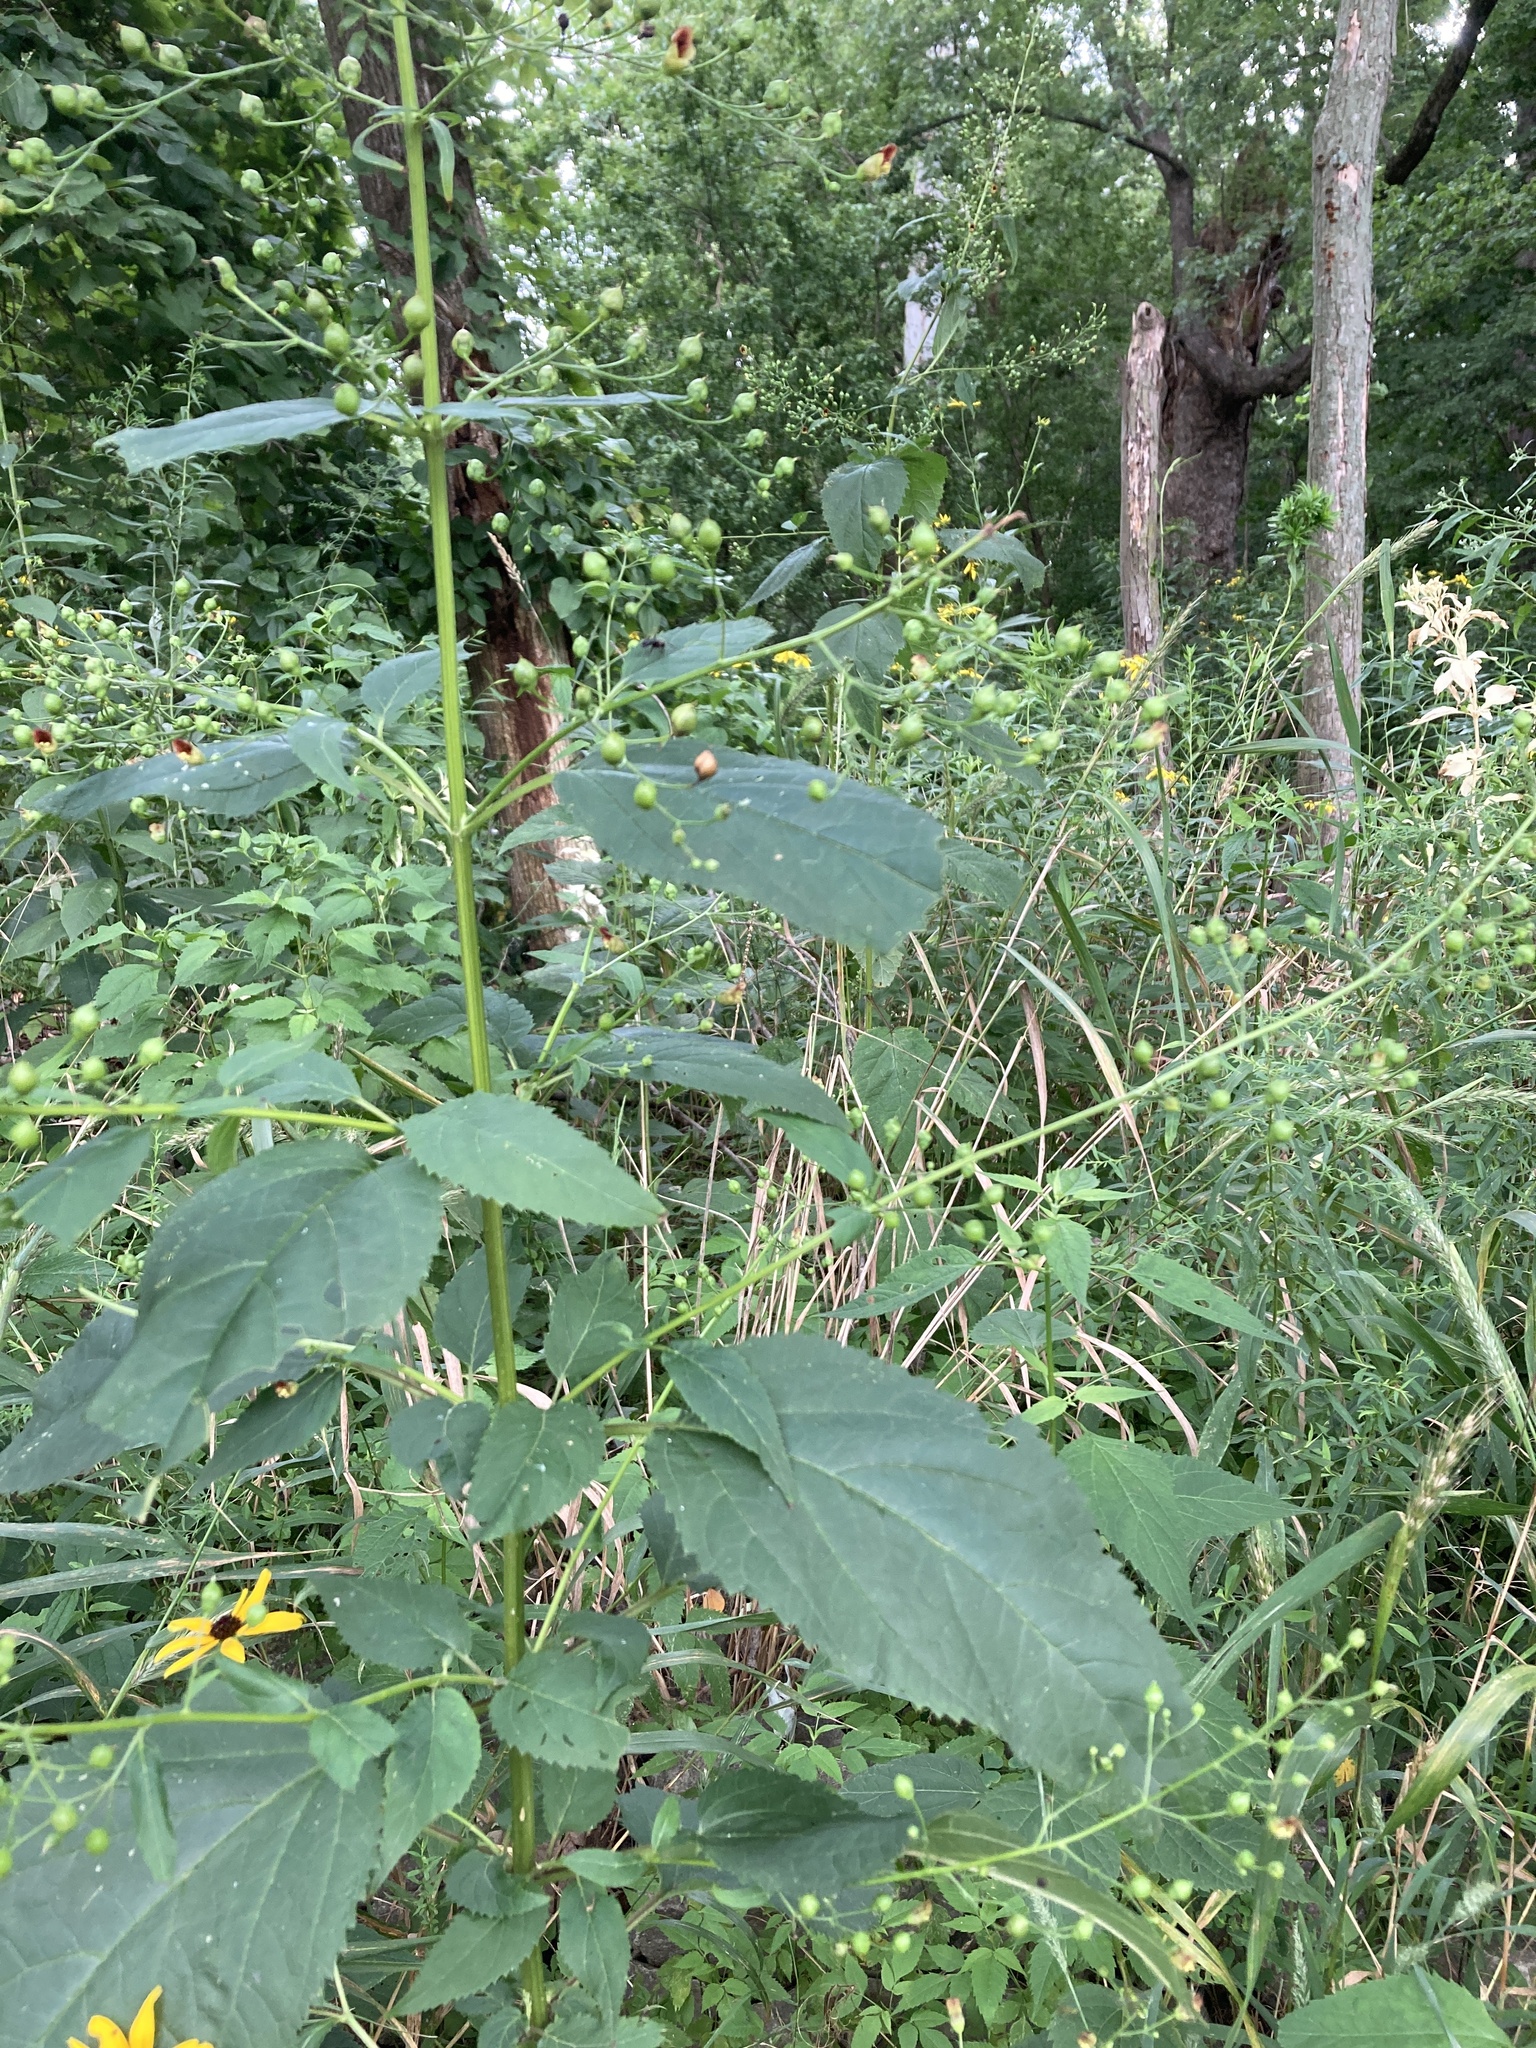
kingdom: Plantae
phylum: Tracheophyta
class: Magnoliopsida
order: Lamiales
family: Scrophulariaceae
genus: Scrophularia
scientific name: Scrophularia marilandica
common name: Eastern figwort
